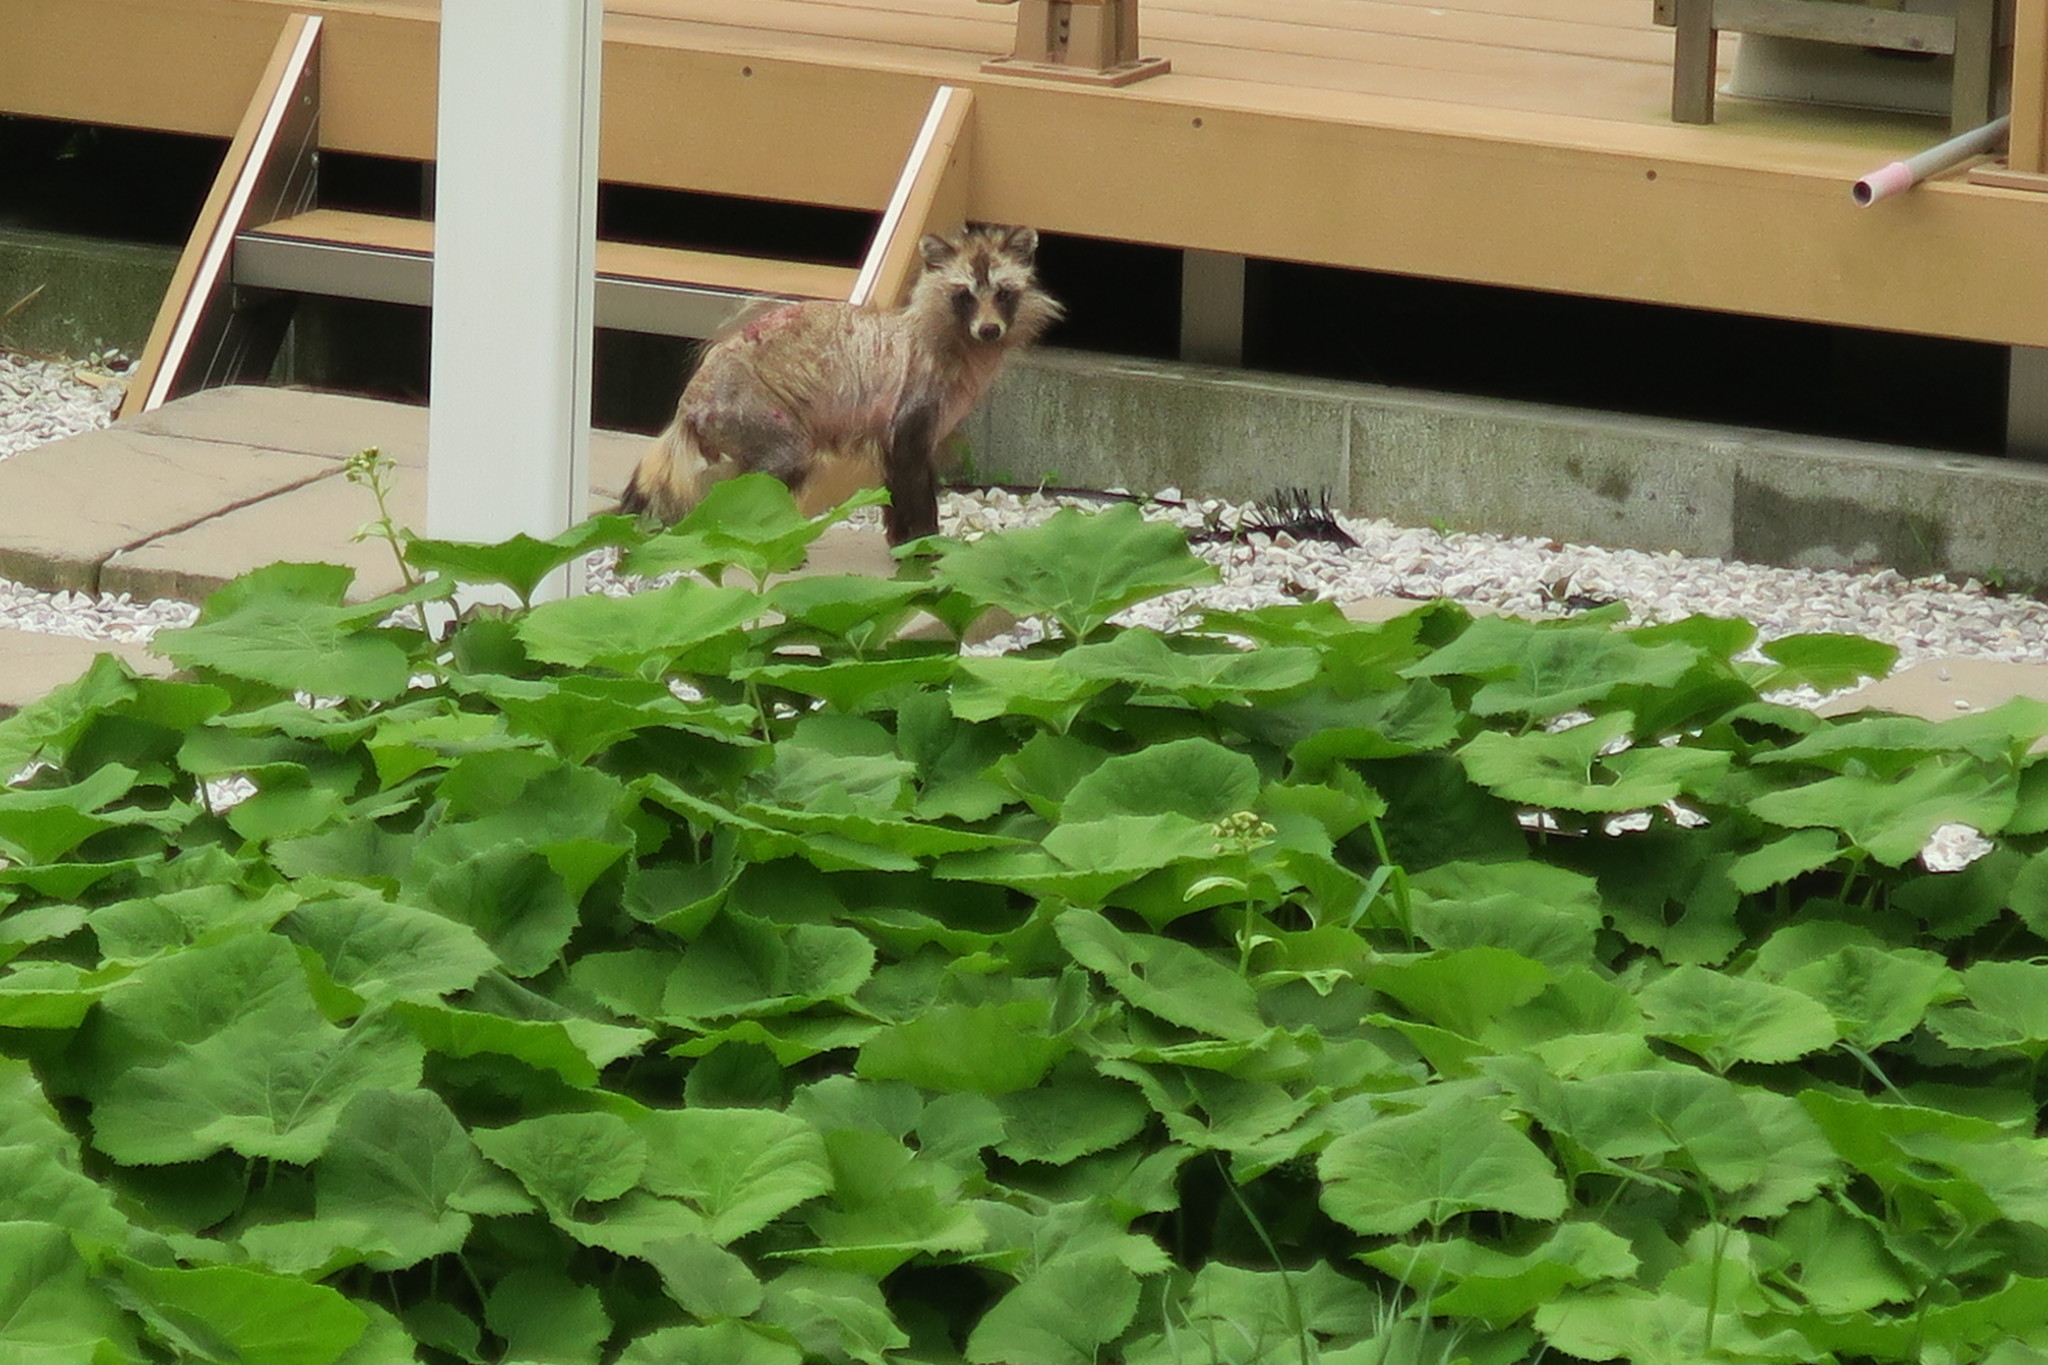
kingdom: Animalia
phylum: Chordata
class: Mammalia
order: Carnivora
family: Canidae
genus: Nyctereutes
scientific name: Nyctereutes
